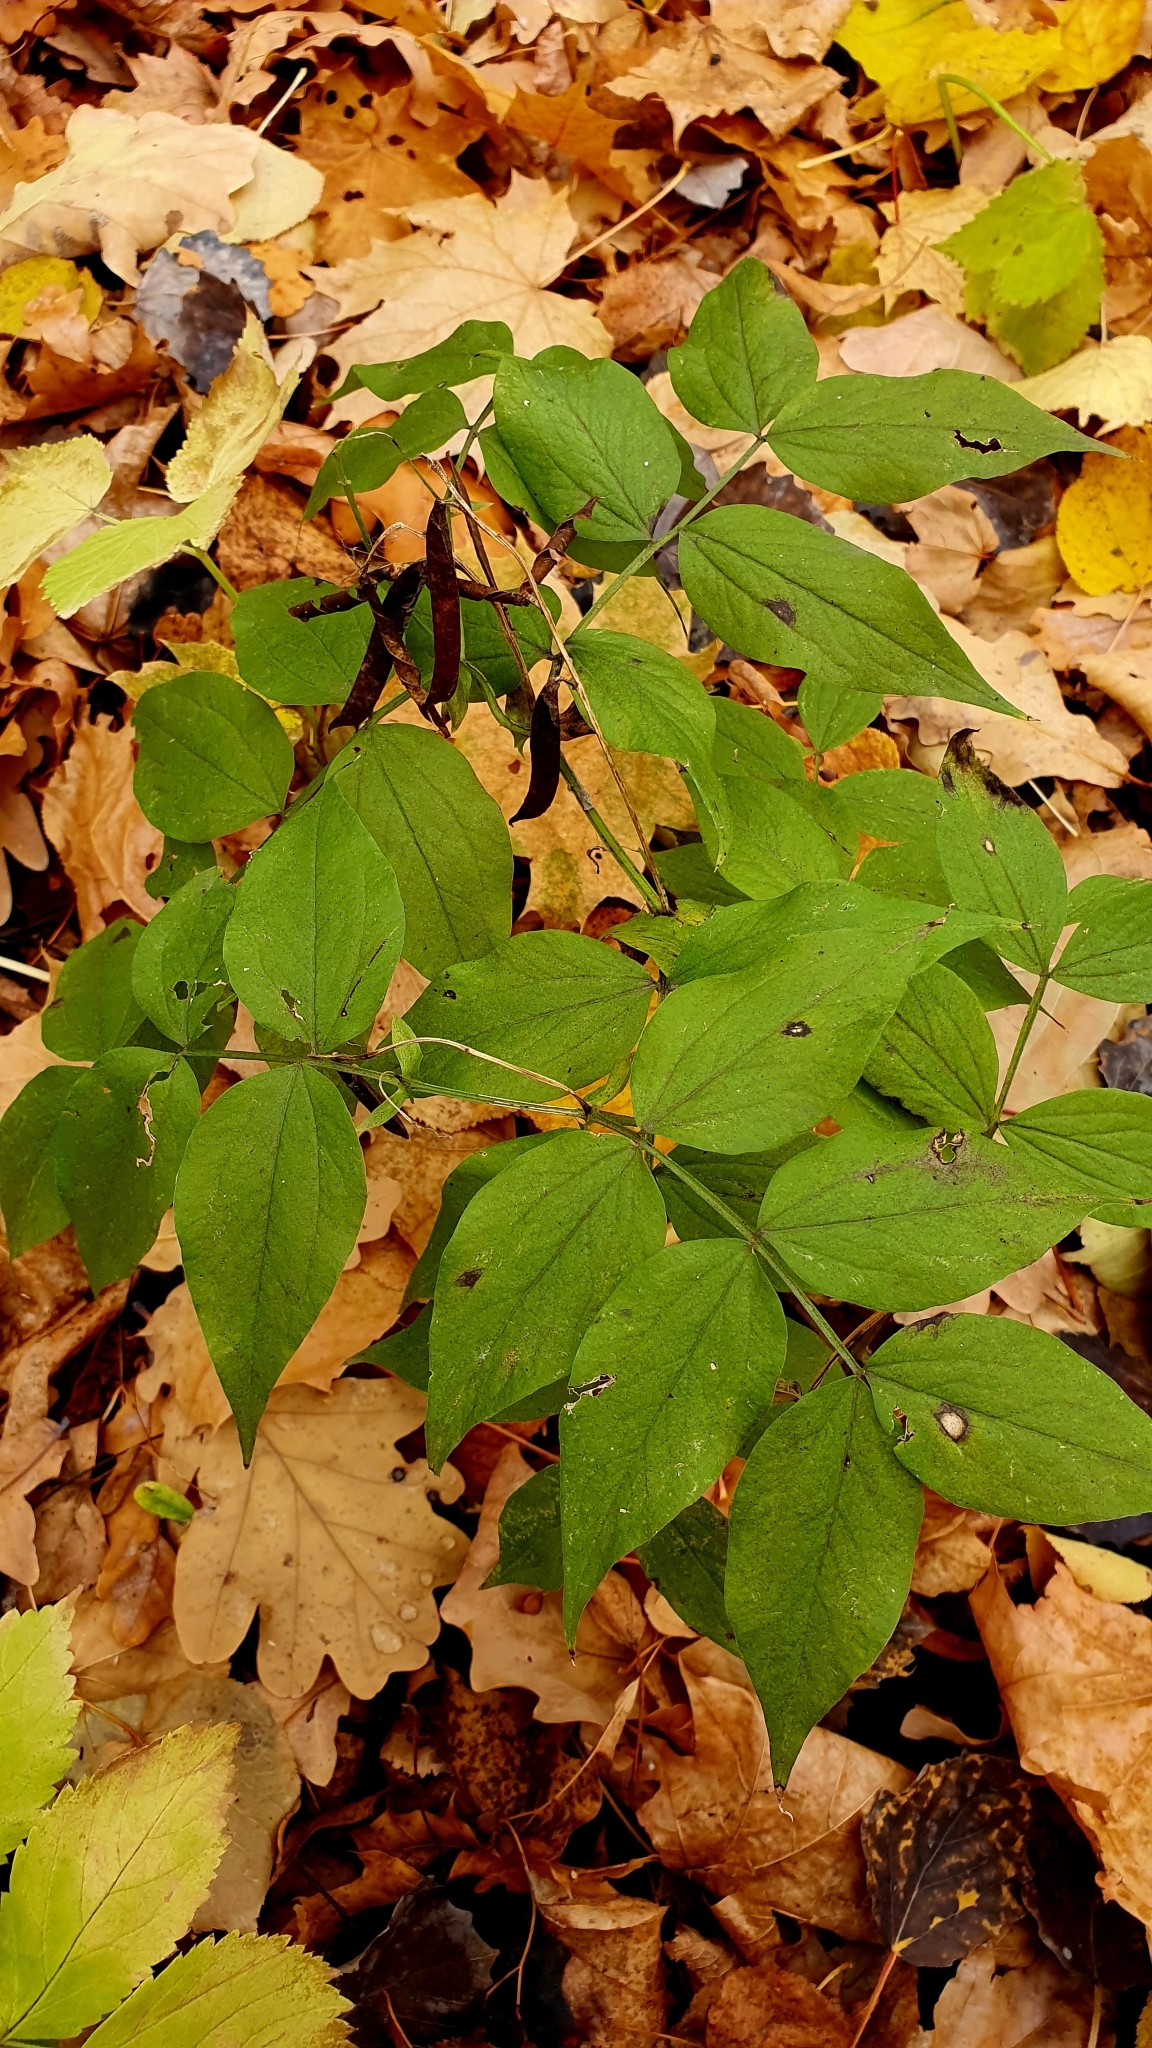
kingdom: Plantae
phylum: Tracheophyta
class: Magnoliopsida
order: Fabales
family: Fabaceae
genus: Lathyrus
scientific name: Lathyrus vernus
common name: Spring pea
